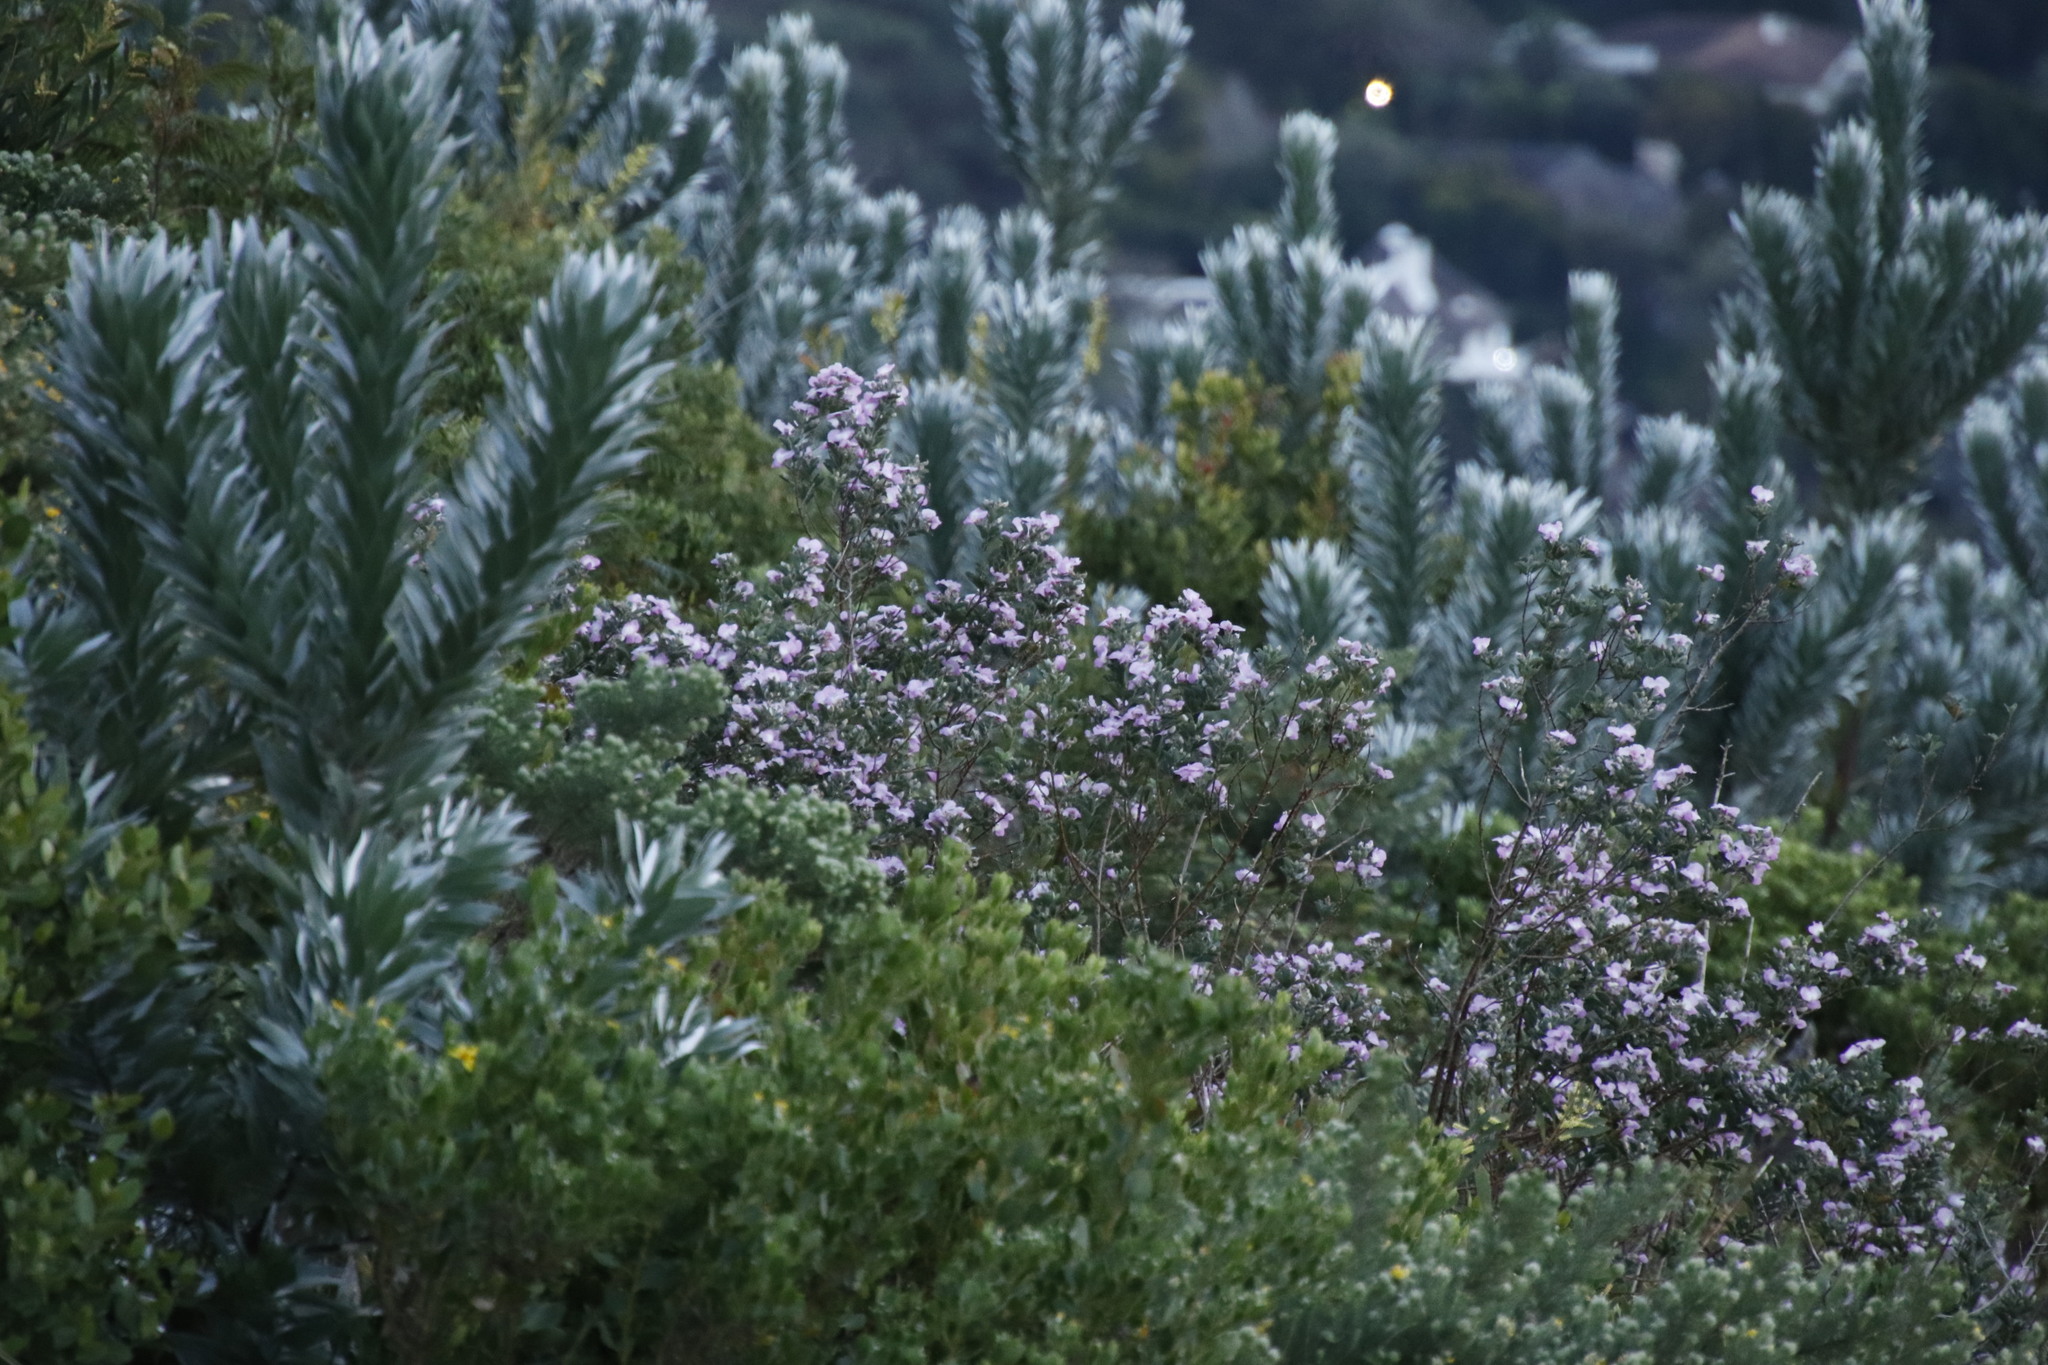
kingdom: Plantae
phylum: Tracheophyta
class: Magnoliopsida
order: Fabales
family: Fabaceae
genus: Podalyria
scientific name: Podalyria calyptrata
